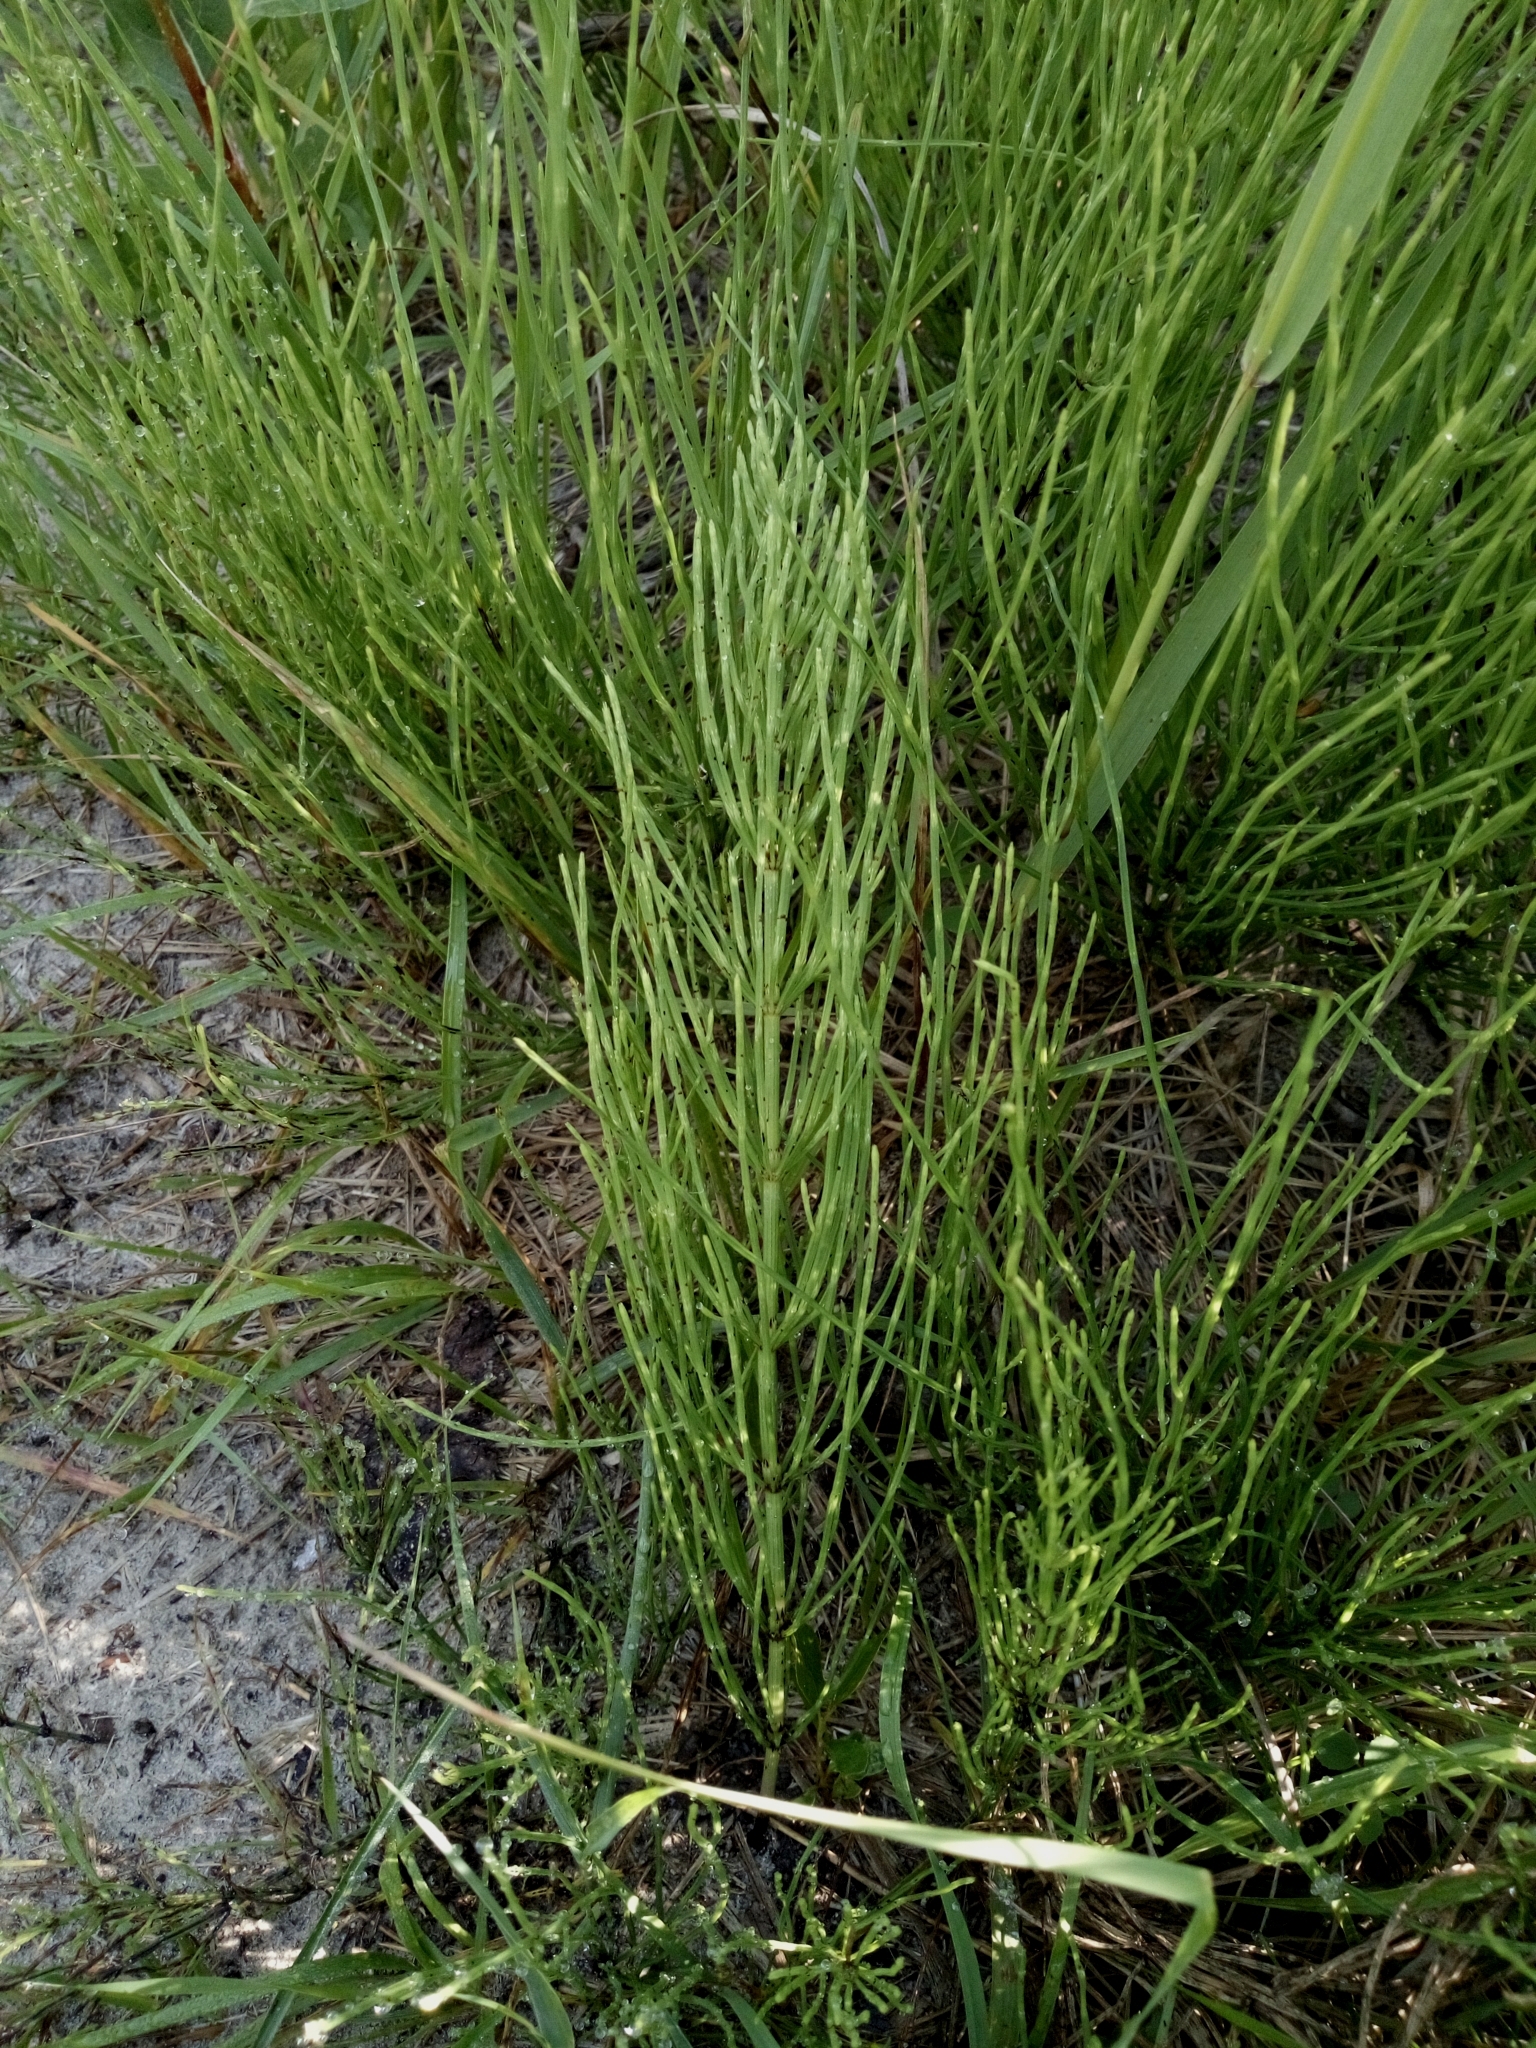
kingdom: Plantae
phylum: Tracheophyta
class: Polypodiopsida
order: Equisetales
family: Equisetaceae
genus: Equisetum
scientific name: Equisetum arvense
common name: Field horsetail
